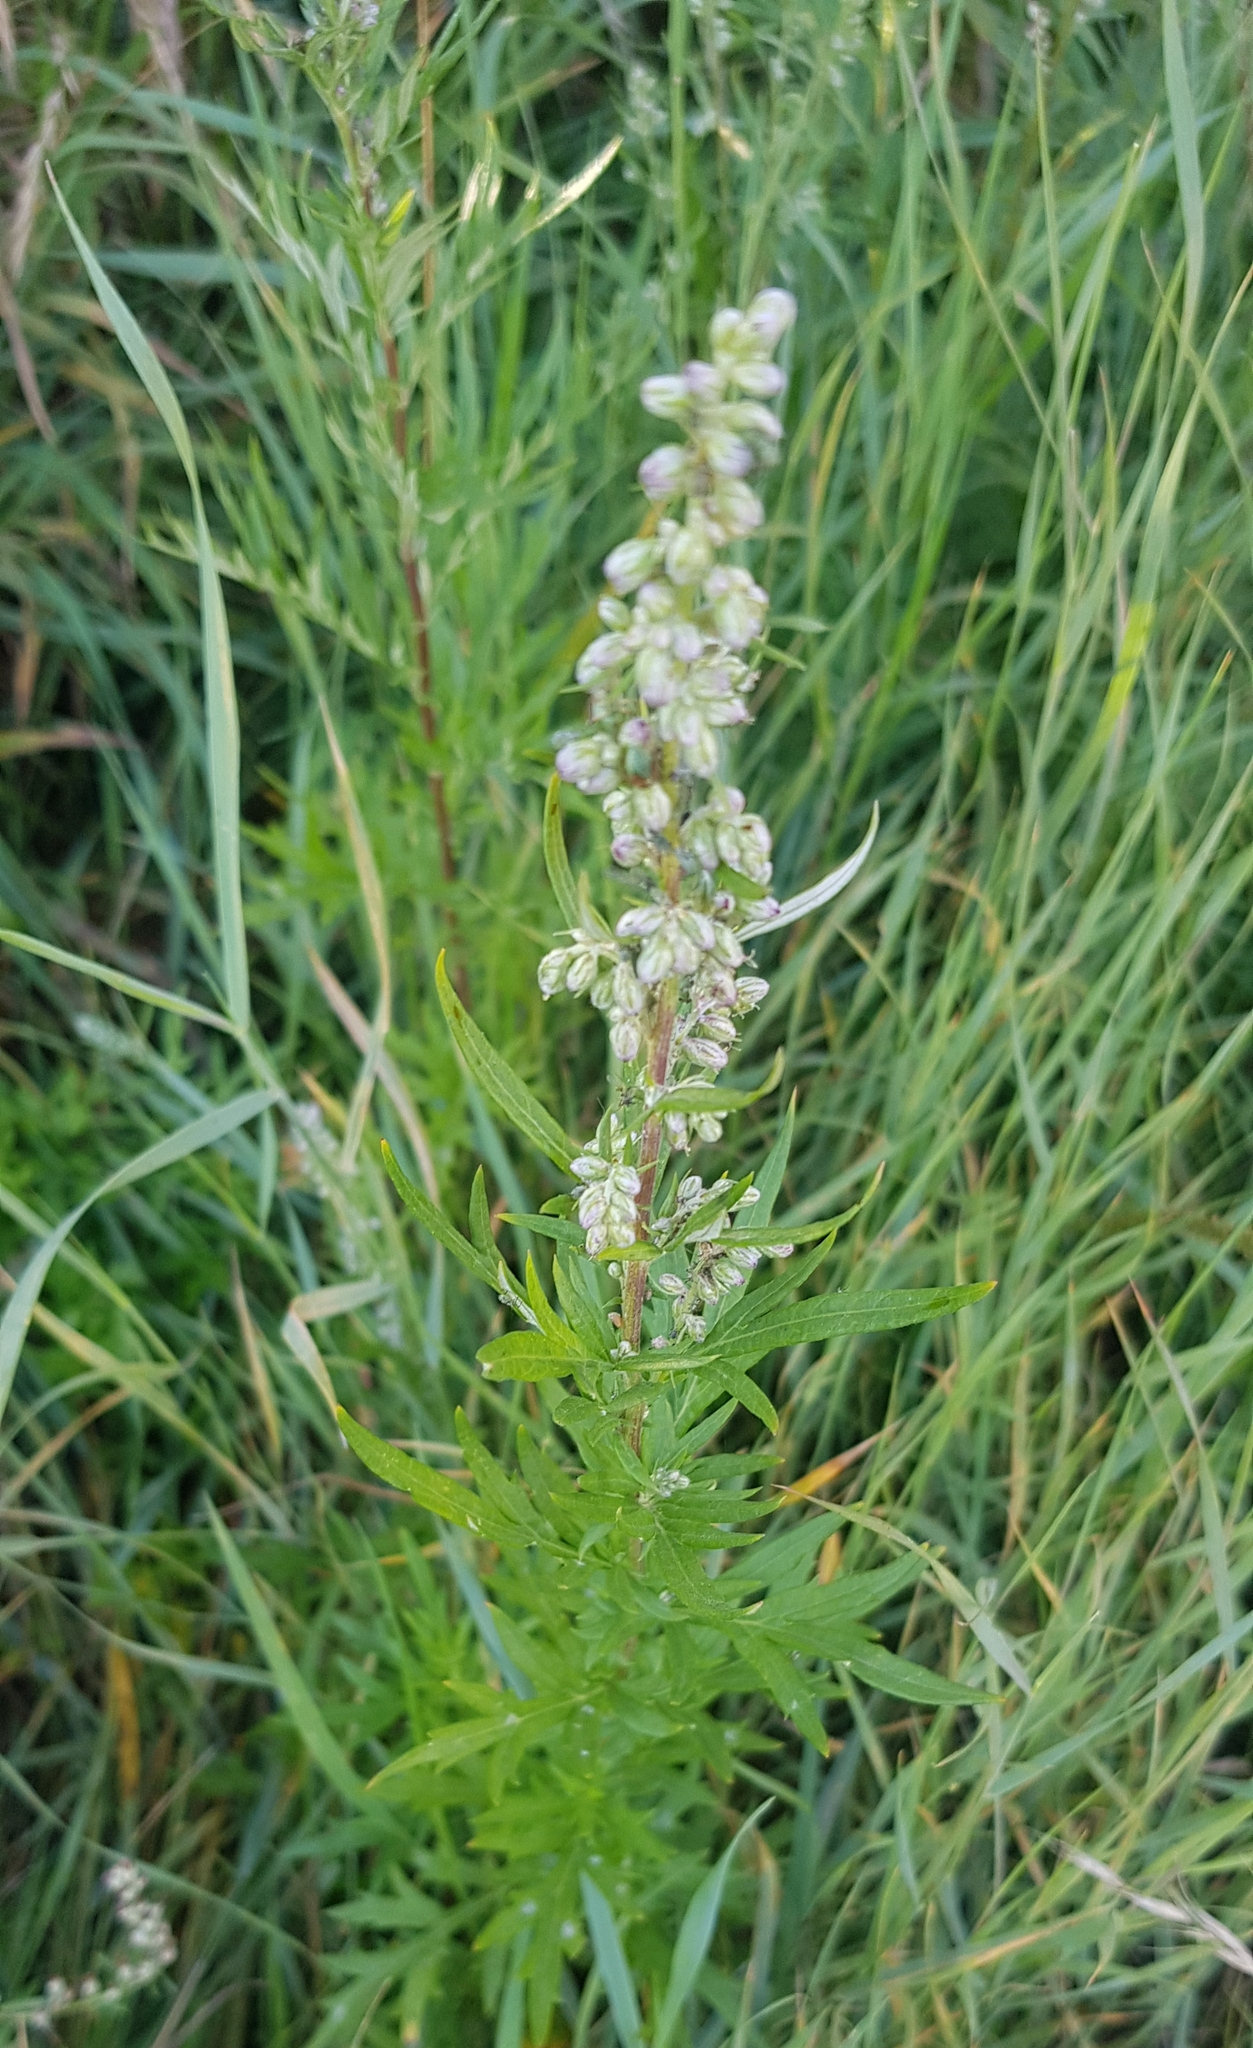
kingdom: Plantae
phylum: Tracheophyta
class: Magnoliopsida
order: Asterales
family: Asteraceae
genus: Artemisia
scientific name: Artemisia vulgaris
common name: Mugwort
